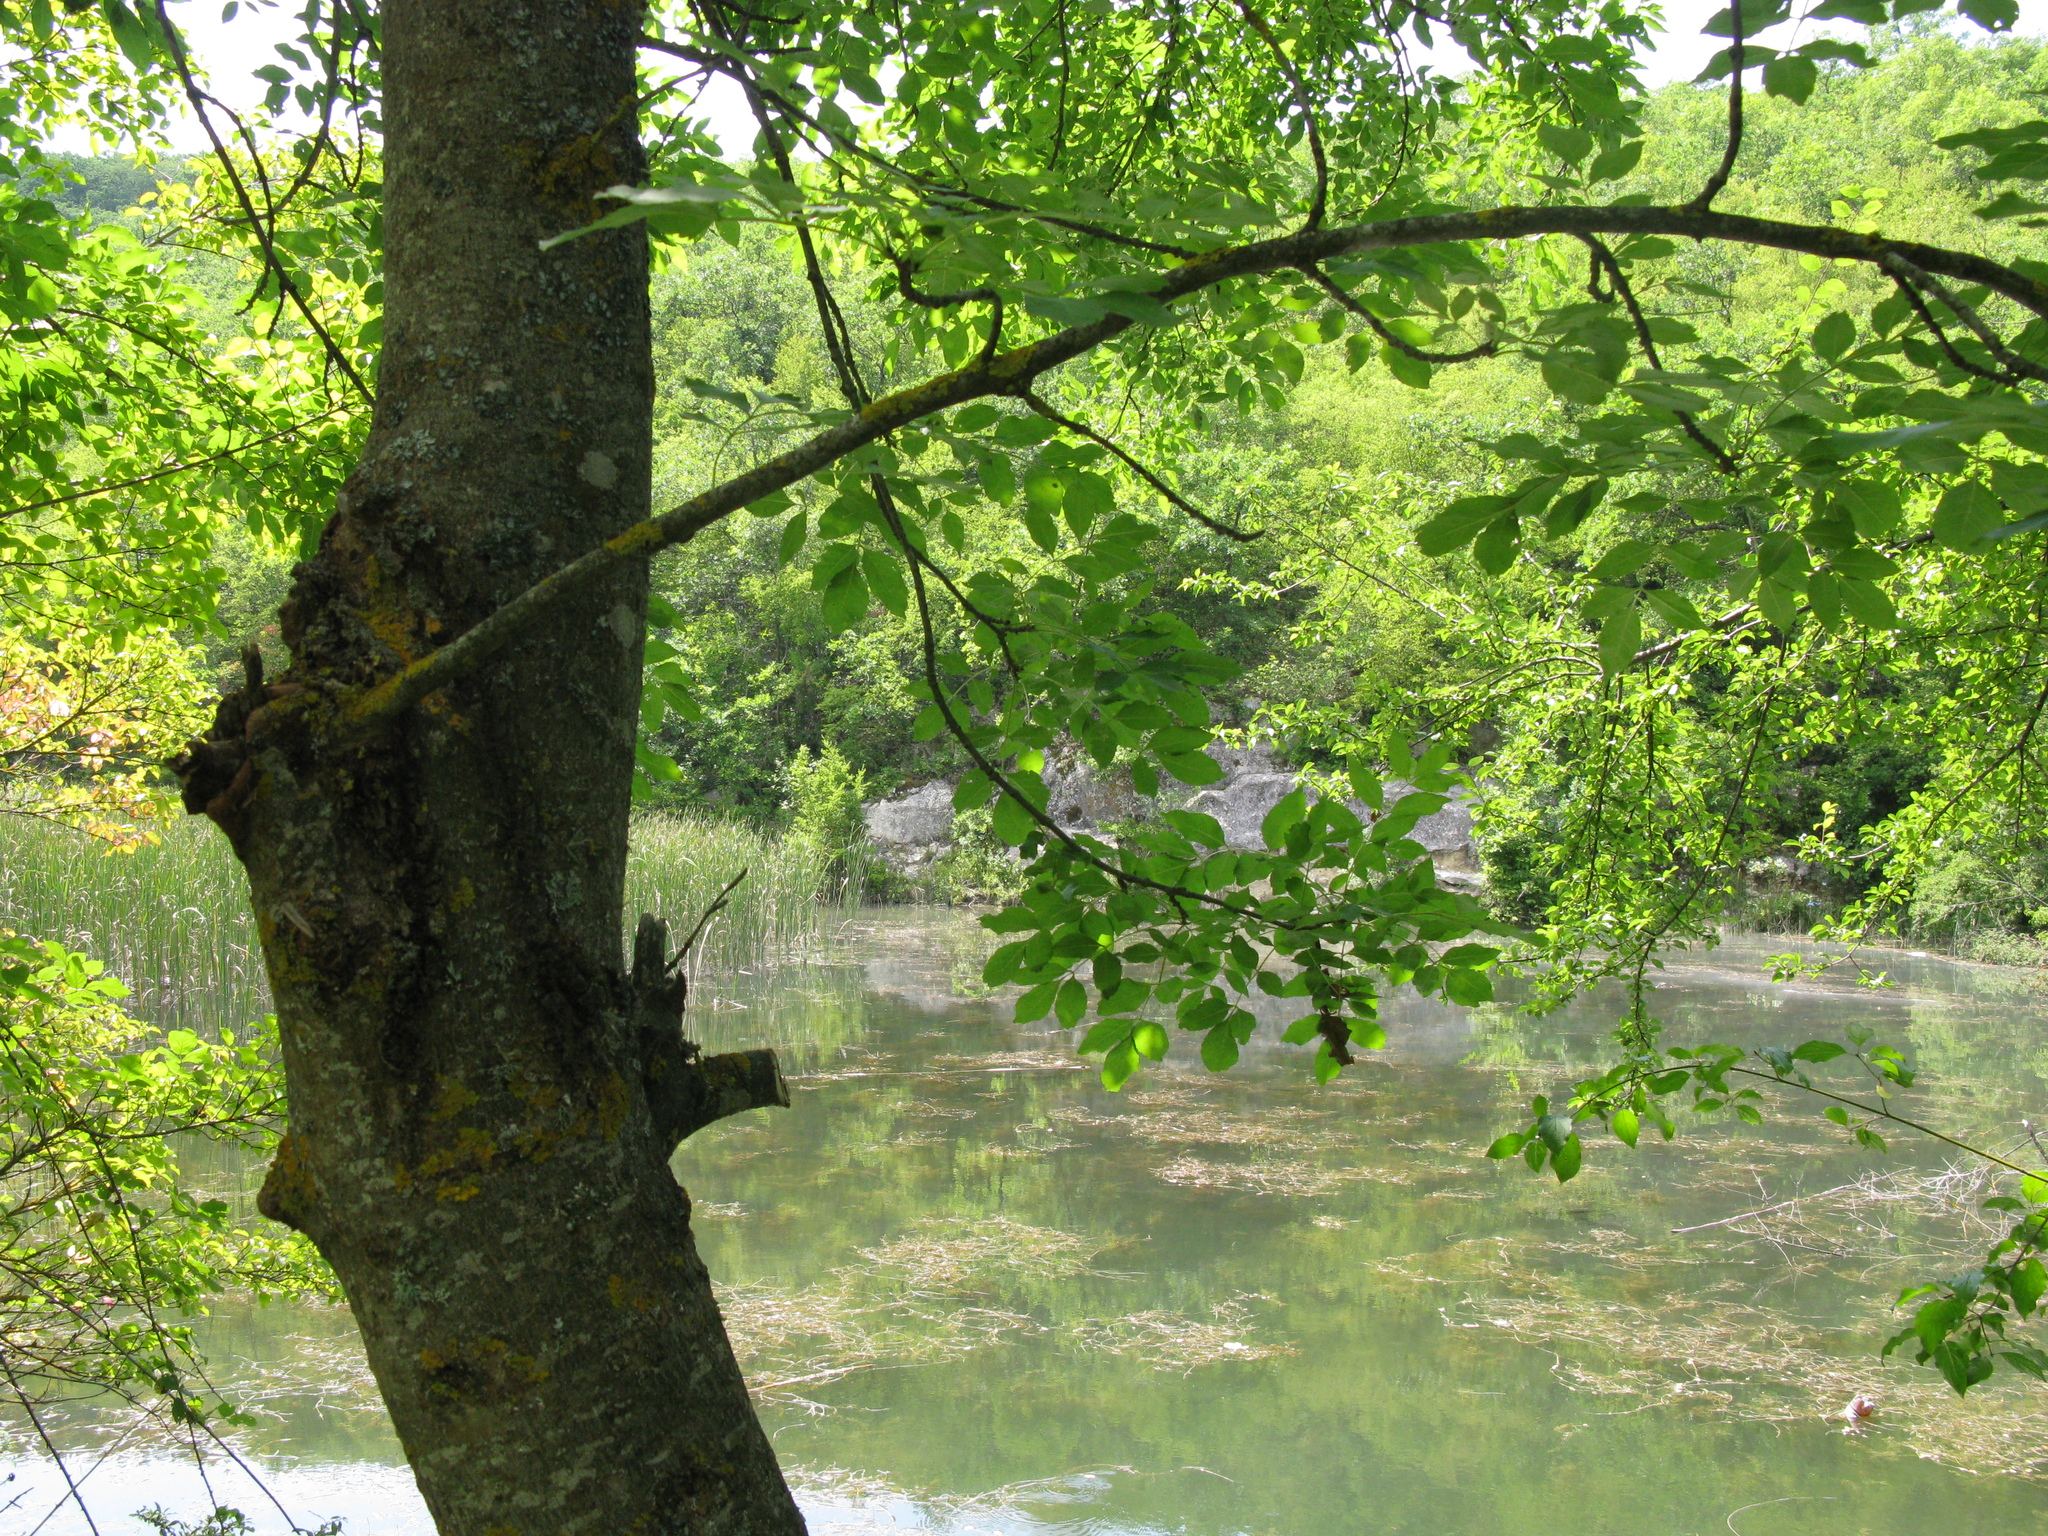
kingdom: Plantae
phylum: Tracheophyta
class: Magnoliopsida
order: Lamiales
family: Oleaceae
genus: Fraxinus
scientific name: Fraxinus excelsior
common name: European ash
